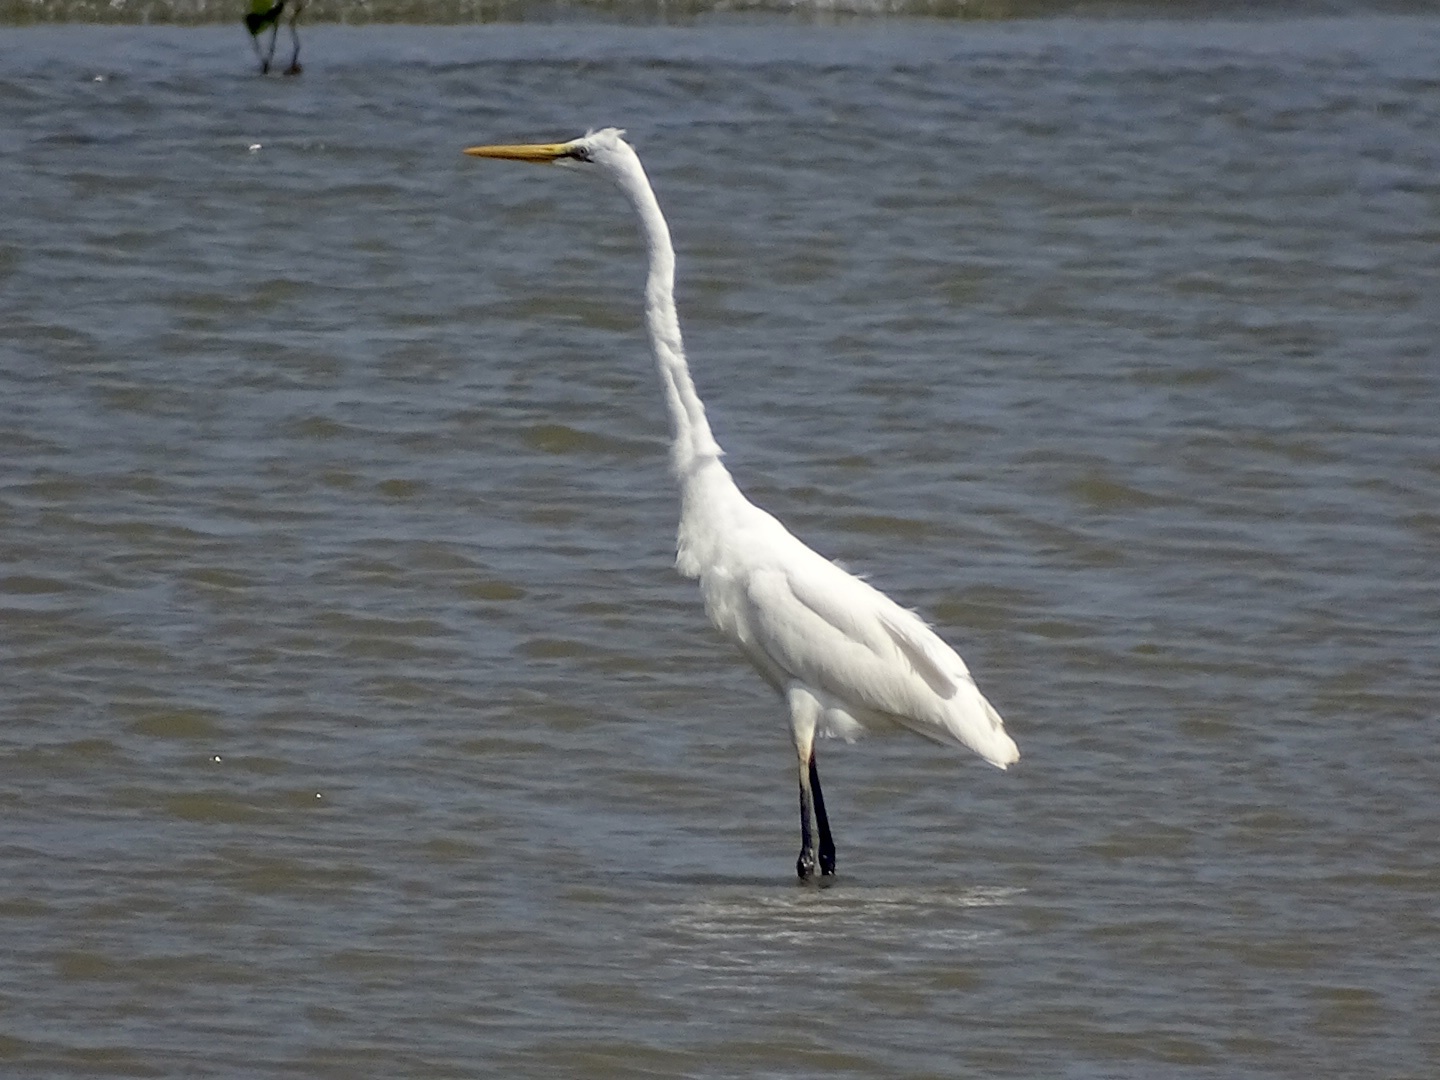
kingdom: Animalia
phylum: Chordata
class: Aves
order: Pelecaniformes
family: Ardeidae
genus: Ardea
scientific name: Ardea alba
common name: Great egret
